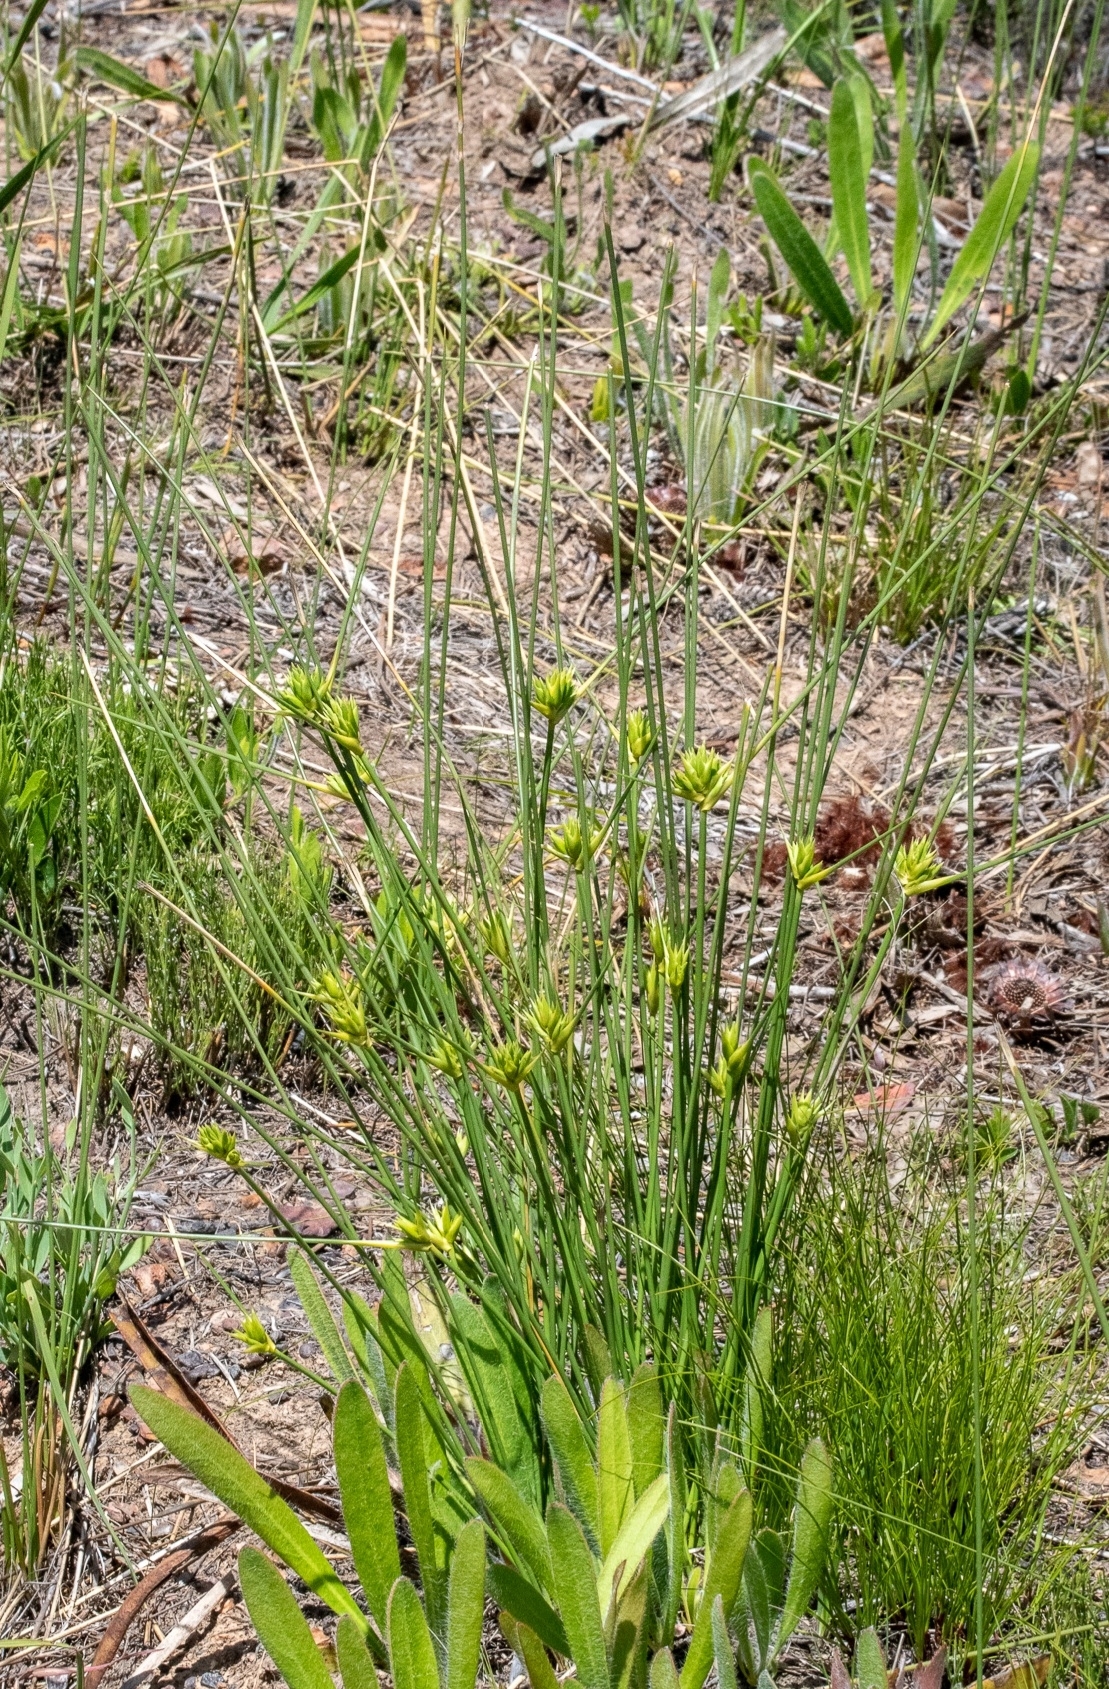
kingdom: Plantae
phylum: Tracheophyta
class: Liliopsida
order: Asparagales
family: Iridaceae
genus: Bobartia
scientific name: Bobartia indica
